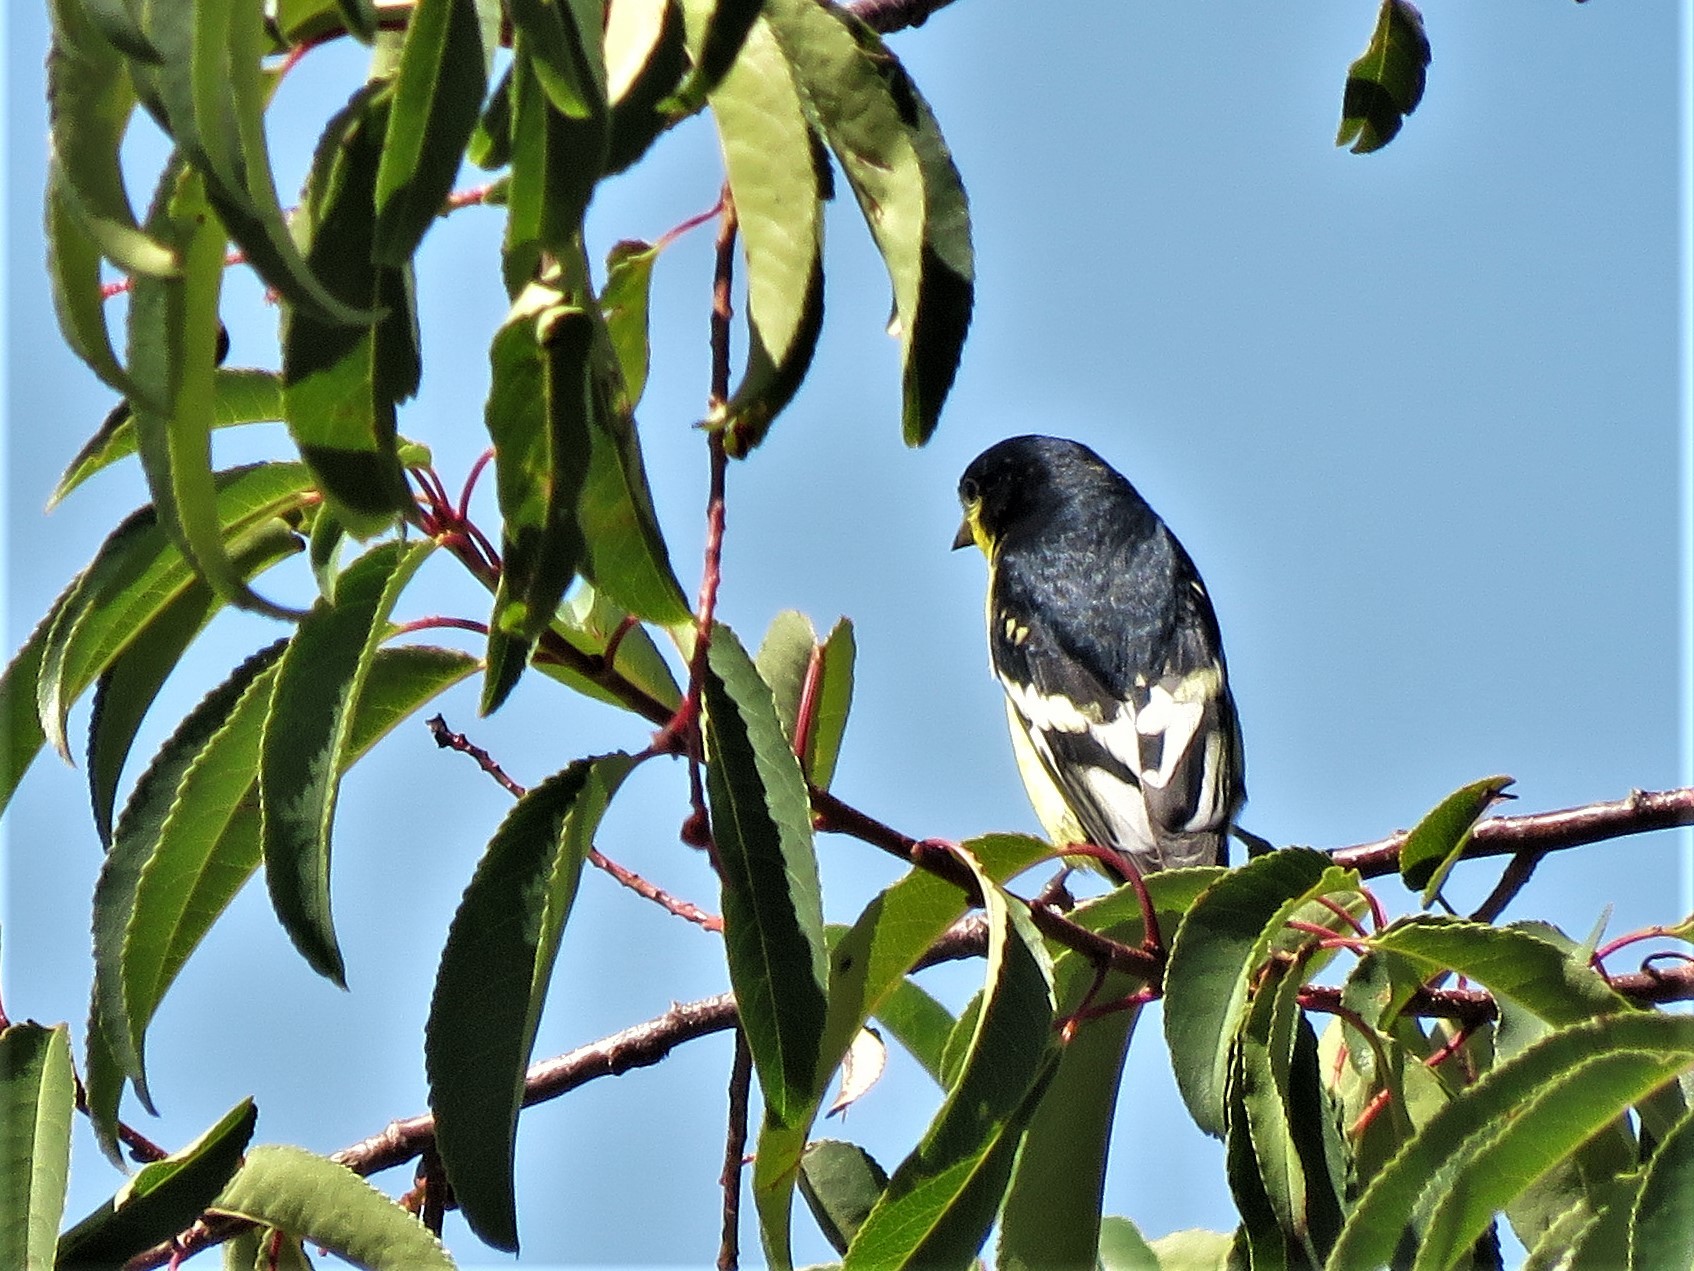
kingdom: Animalia
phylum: Chordata
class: Aves
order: Passeriformes
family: Fringillidae
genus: Spinus
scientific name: Spinus psaltria
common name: Lesser goldfinch
